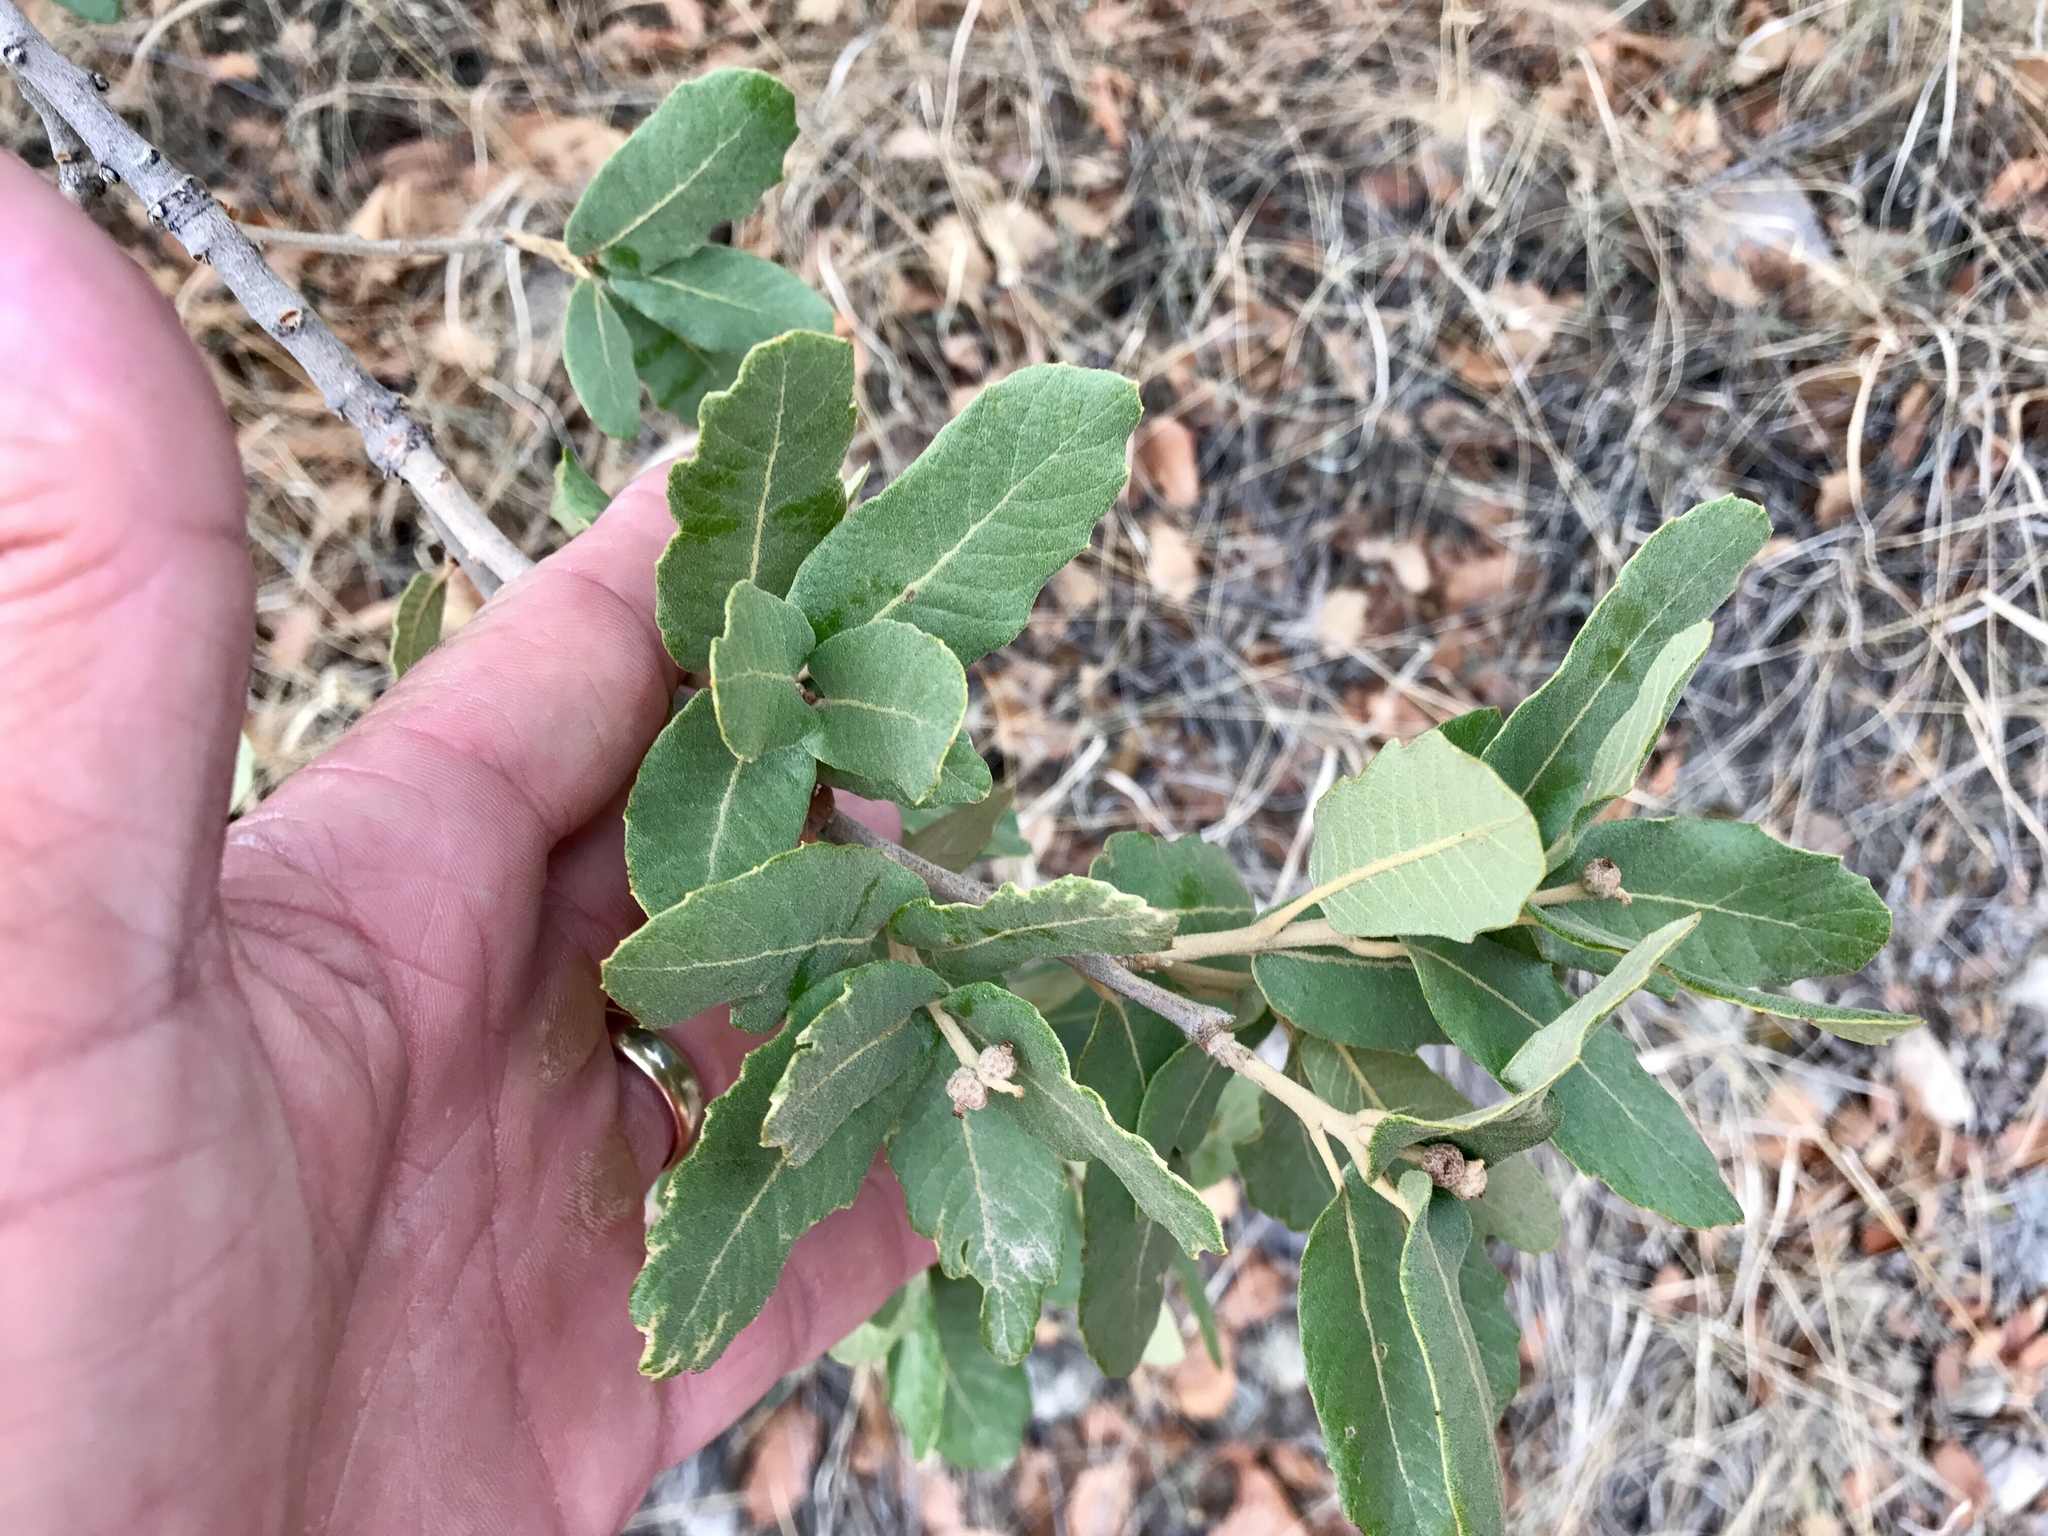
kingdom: Plantae
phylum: Tracheophyta
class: Magnoliopsida
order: Fagales
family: Fagaceae
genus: Quercus
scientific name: Quercus arizonica
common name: Arizona white oak
